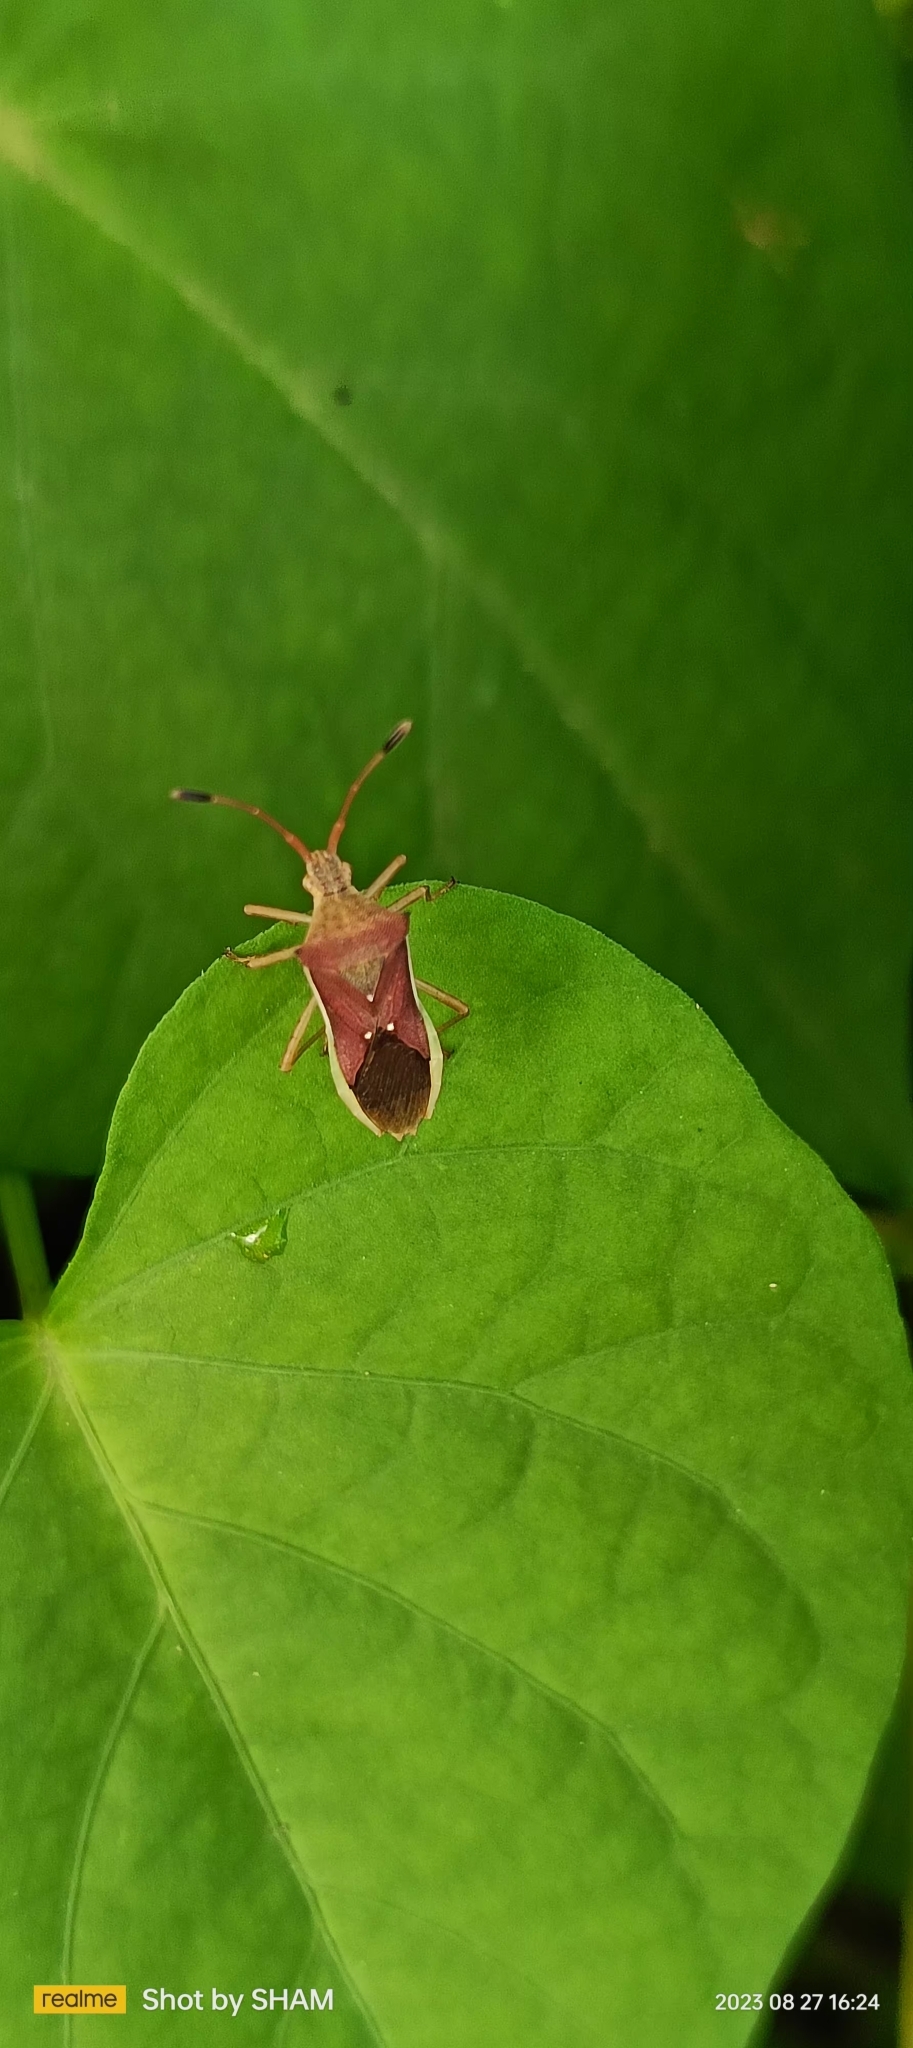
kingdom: Animalia
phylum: Arthropoda
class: Insecta
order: Hemiptera
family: Coreidae
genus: Cletus
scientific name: Cletus trigonus
